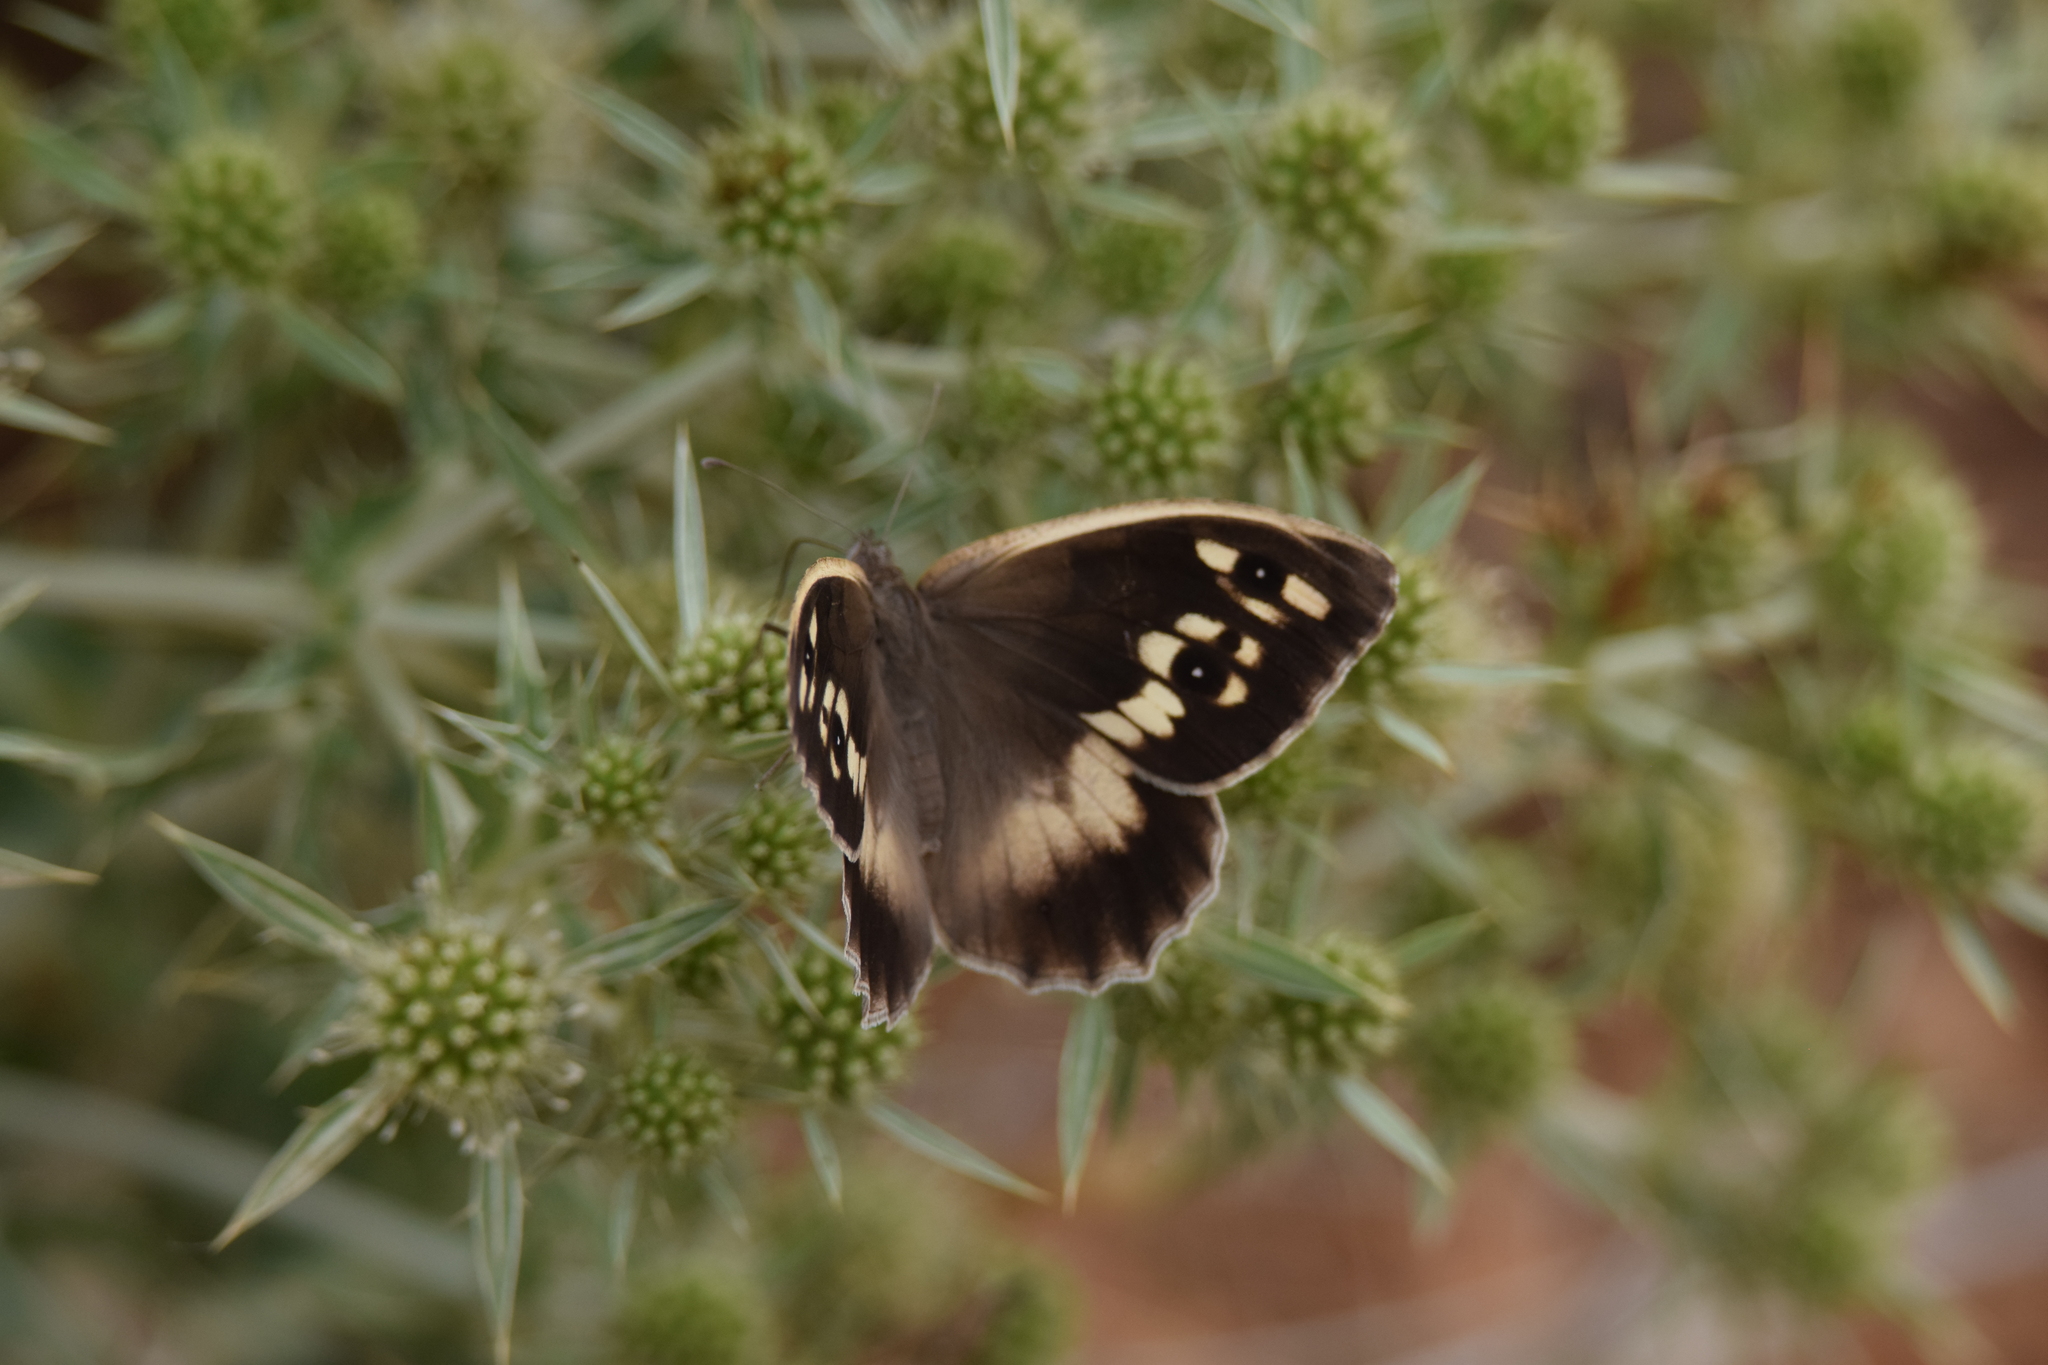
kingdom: Animalia
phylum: Arthropoda
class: Insecta
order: Lepidoptera
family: Nymphalidae
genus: Satyrus
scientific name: Satyrus briseis
